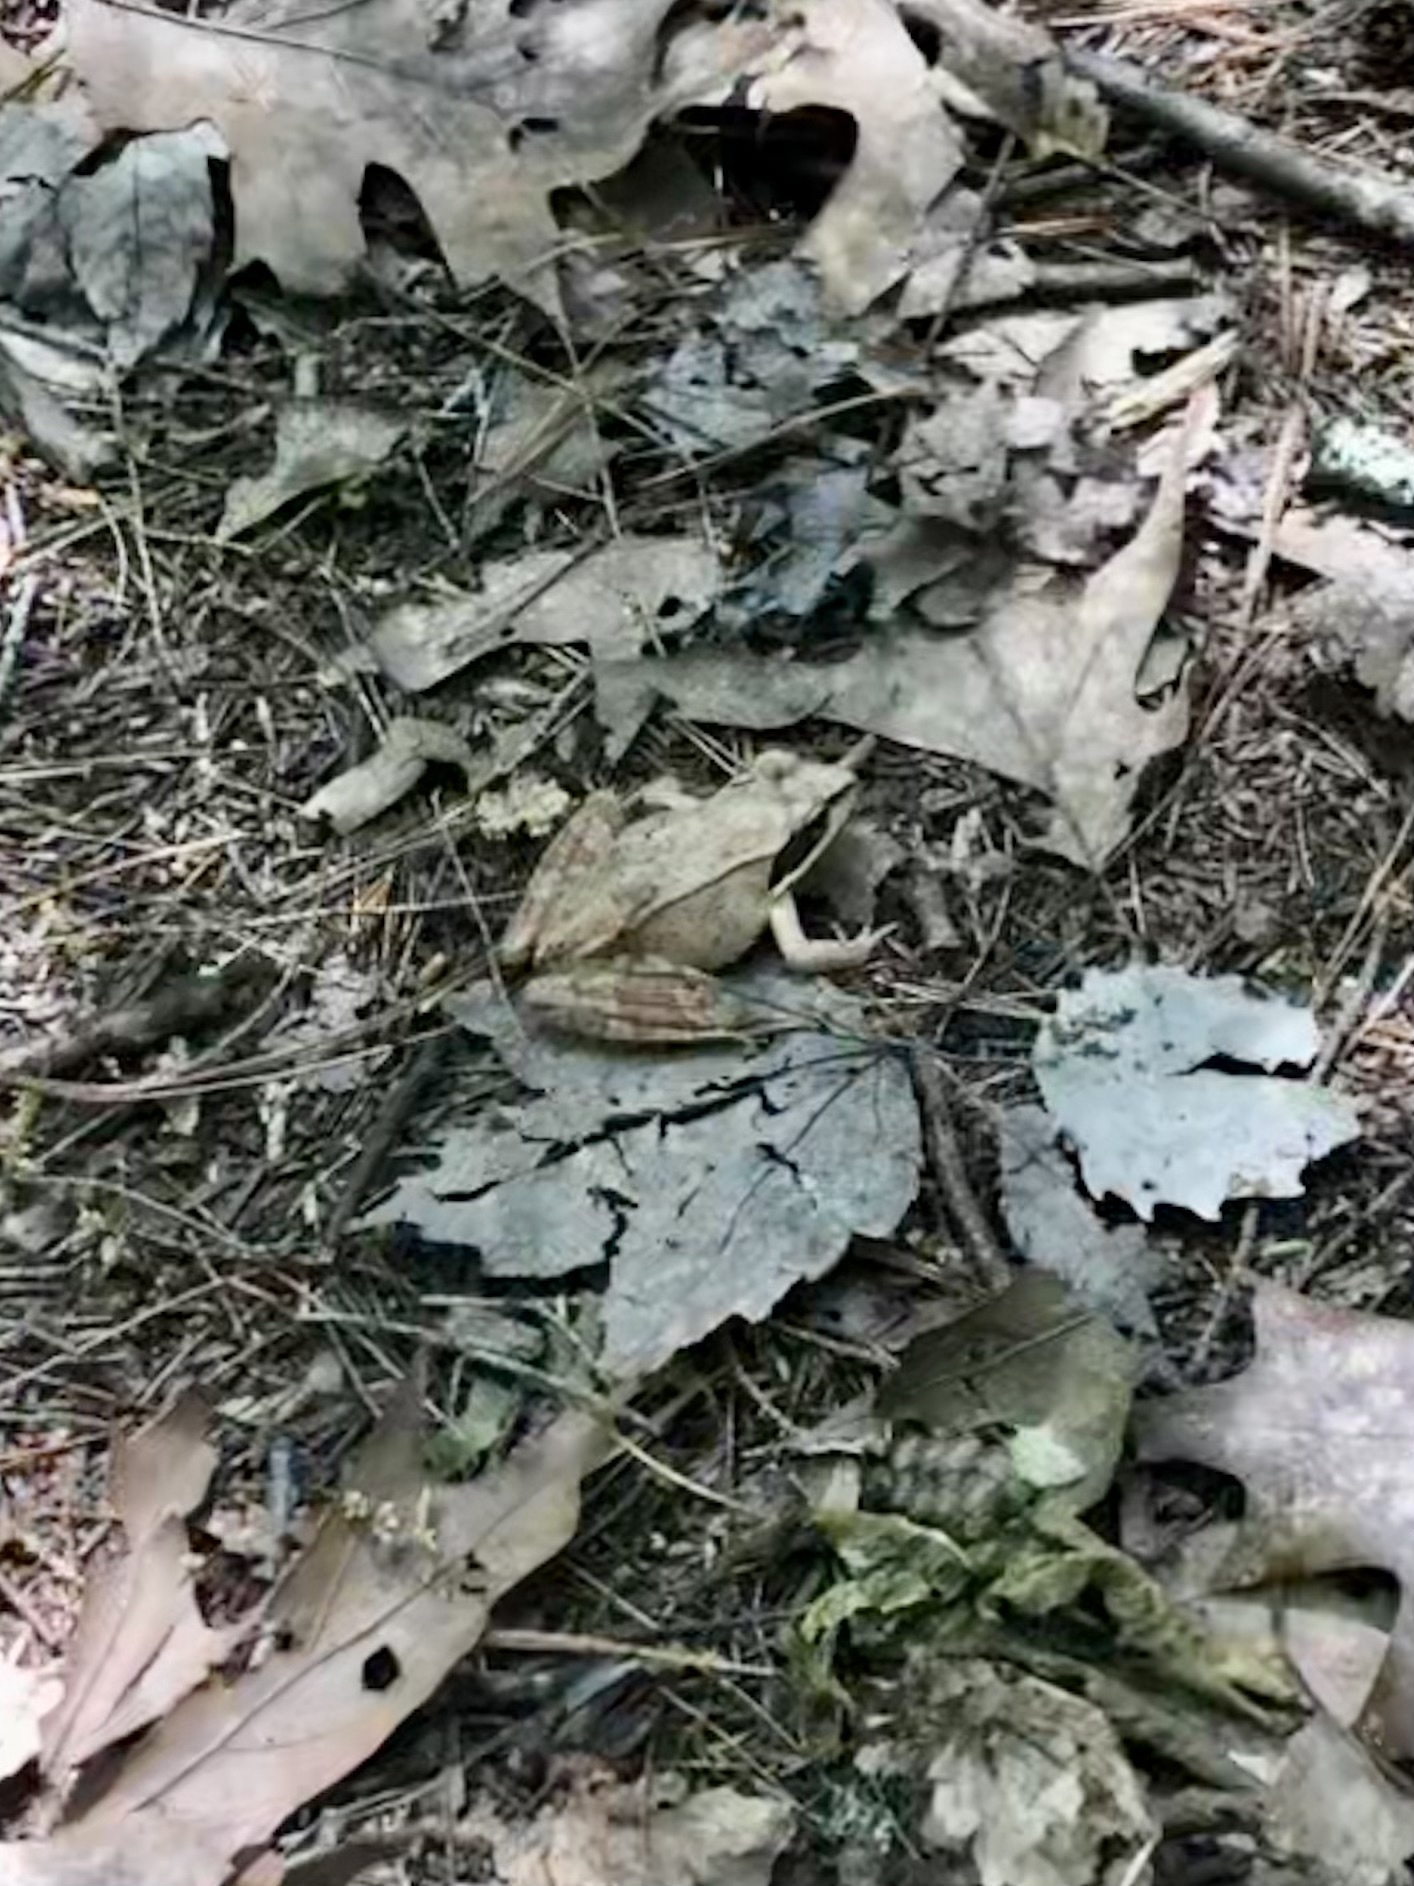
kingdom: Animalia
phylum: Chordata
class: Amphibia
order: Anura
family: Ranidae
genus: Lithobates
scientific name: Lithobates sylvaticus
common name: Wood frog
